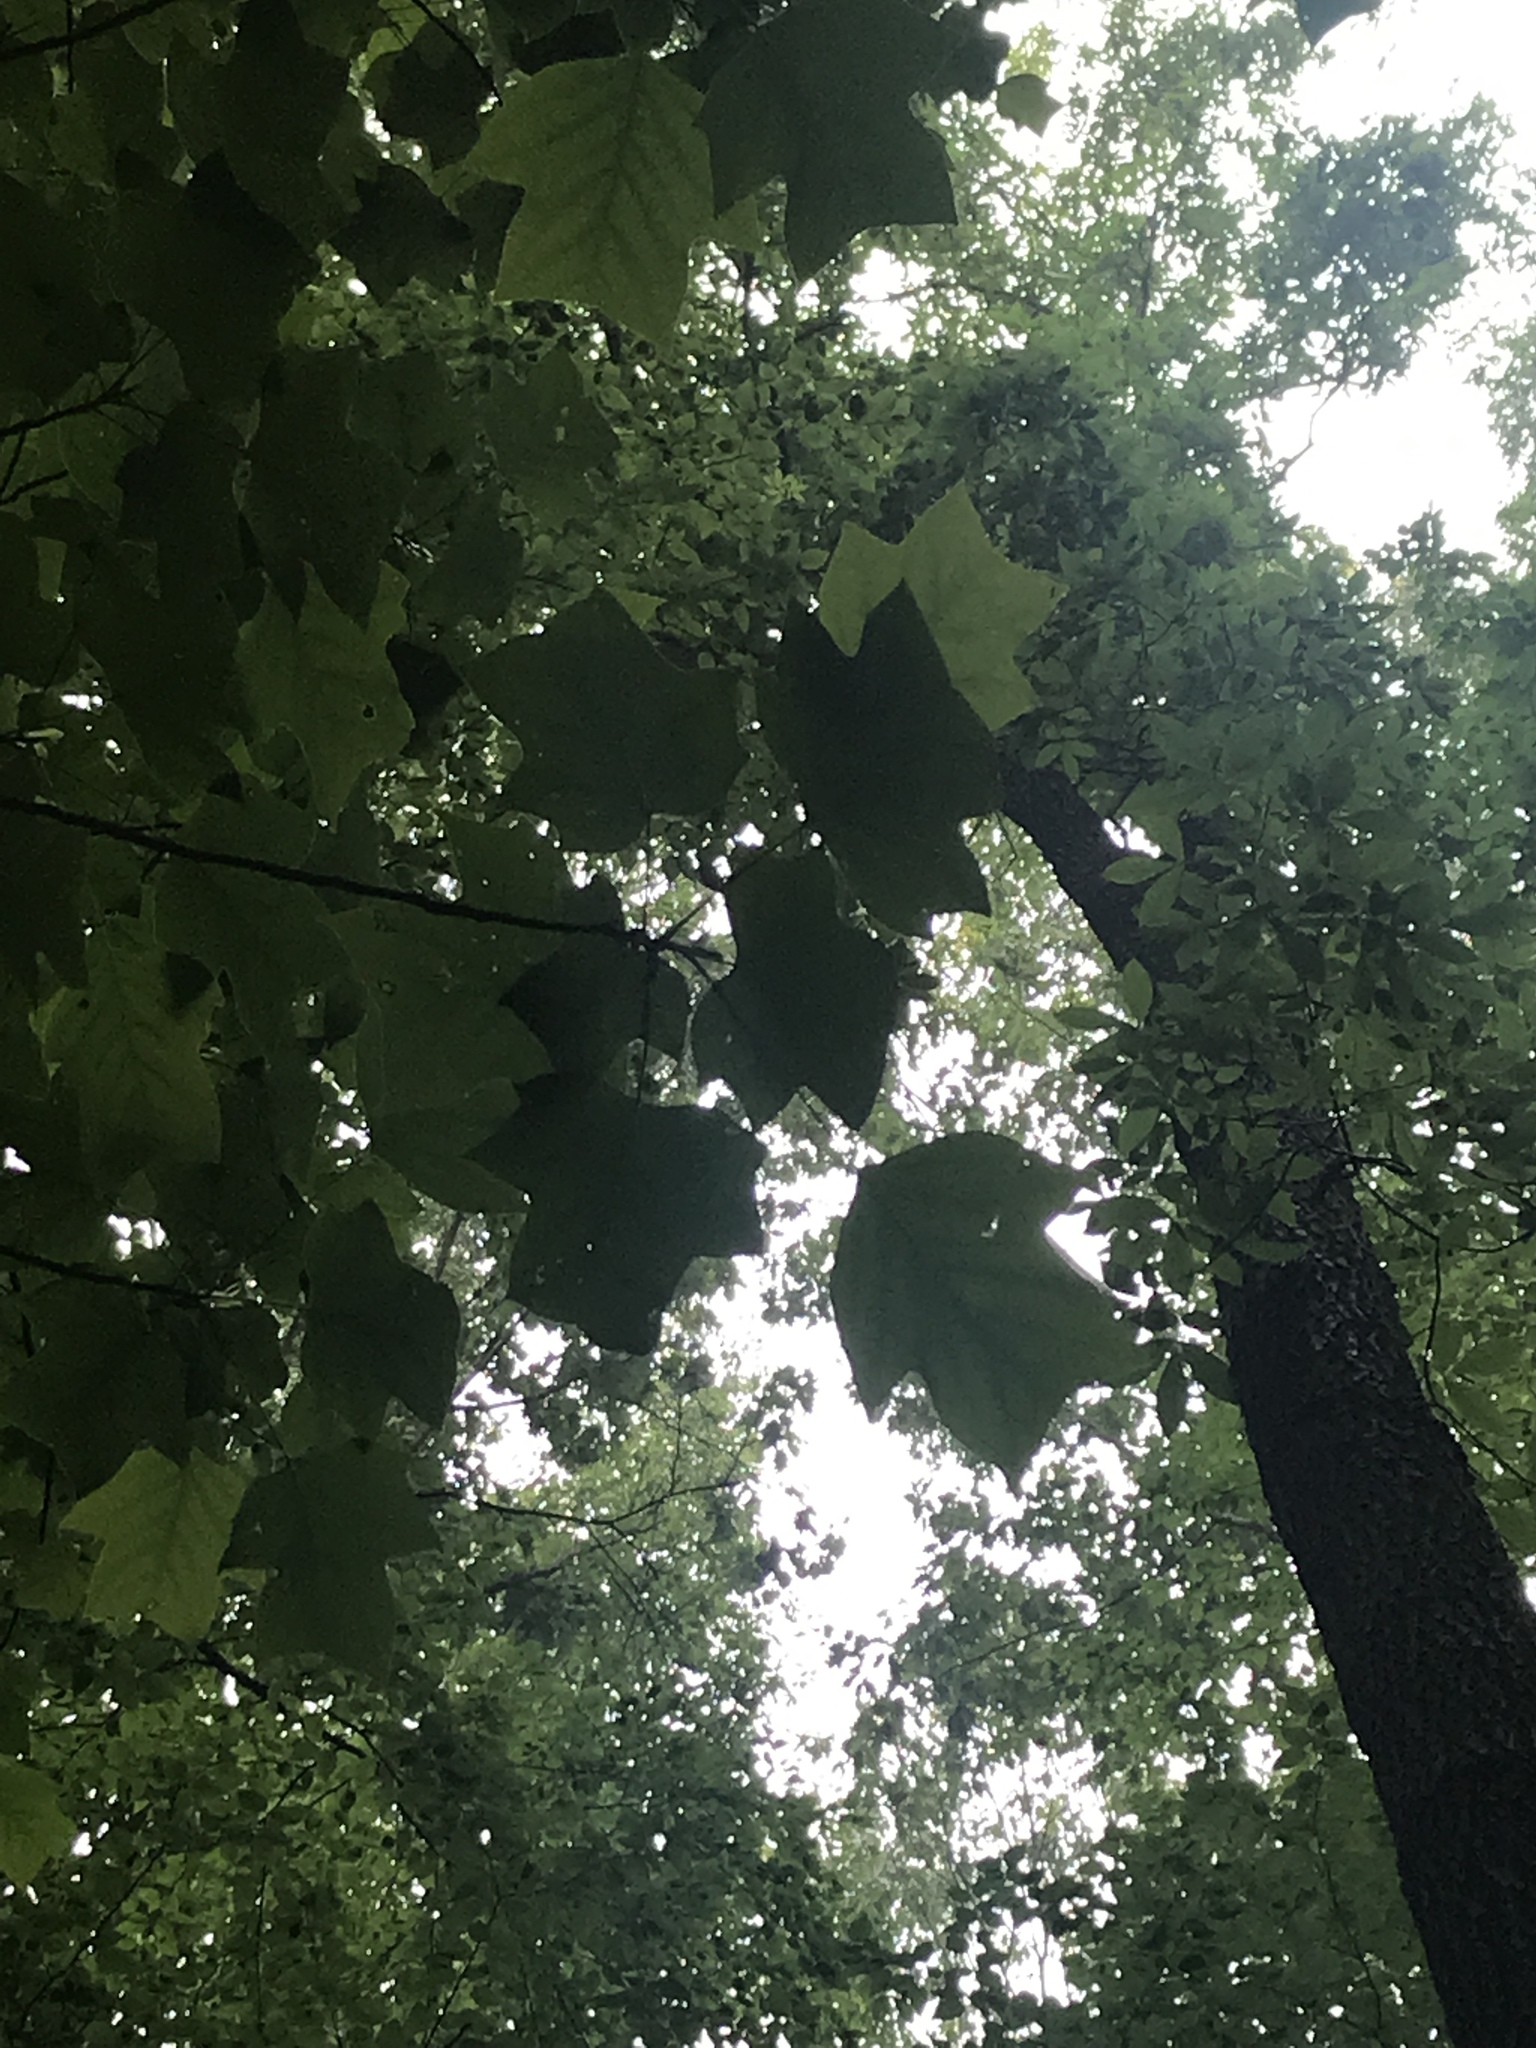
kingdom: Plantae
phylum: Tracheophyta
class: Magnoliopsida
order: Magnoliales
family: Magnoliaceae
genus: Liriodendron
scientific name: Liriodendron tulipifera
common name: Tulip tree
